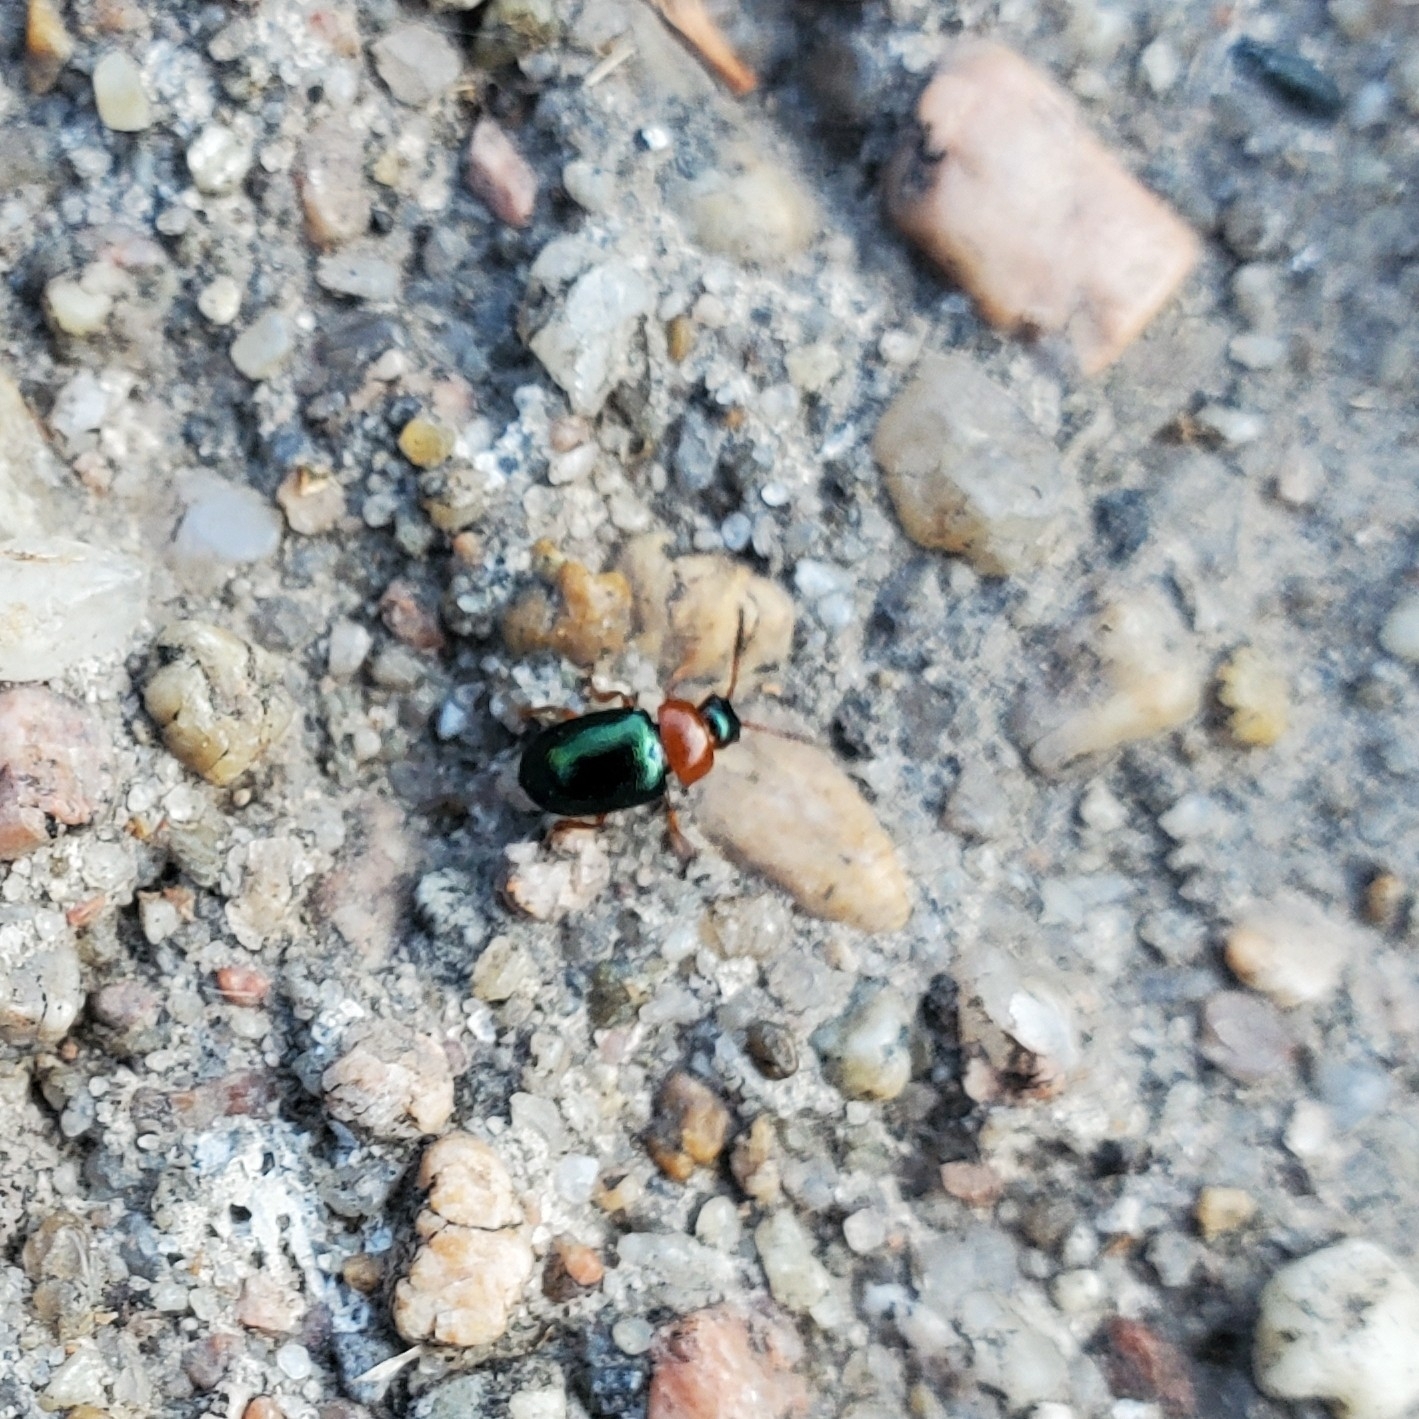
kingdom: Animalia
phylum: Arthropoda
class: Insecta
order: Coleoptera
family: Chrysomelidae
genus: Gastrophysa
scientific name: Gastrophysa polygoni
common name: Knotweed leaf beetle
